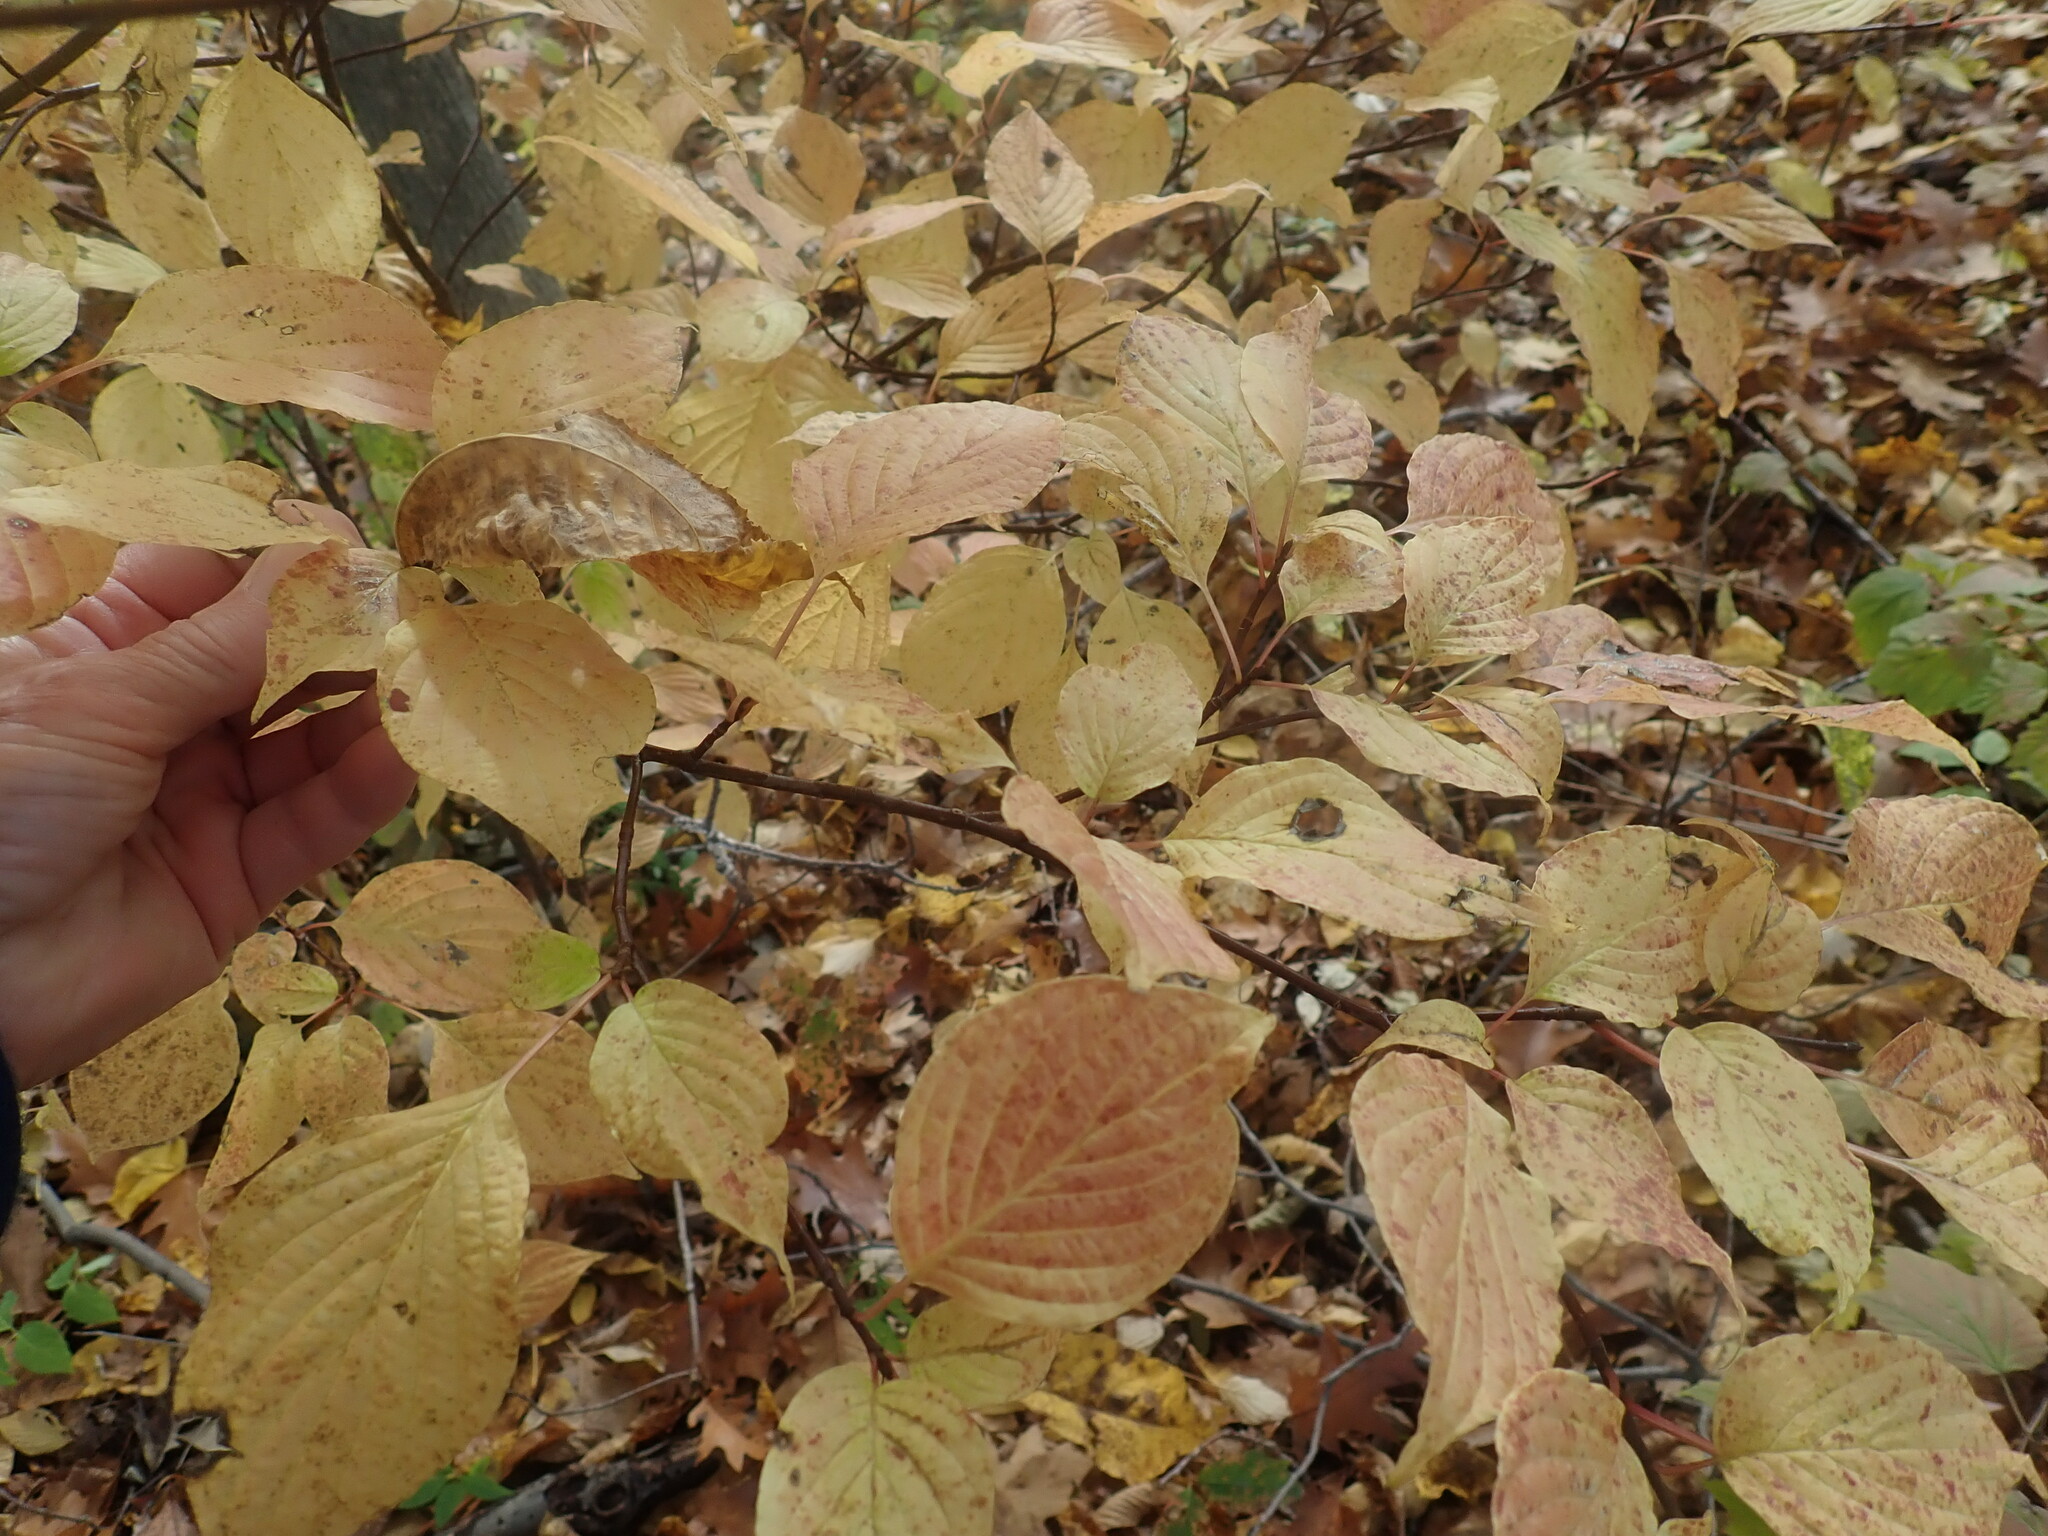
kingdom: Plantae
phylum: Tracheophyta
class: Magnoliopsida
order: Cornales
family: Cornaceae
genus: Cornus
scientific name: Cornus alternifolia
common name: Pagoda dogwood
